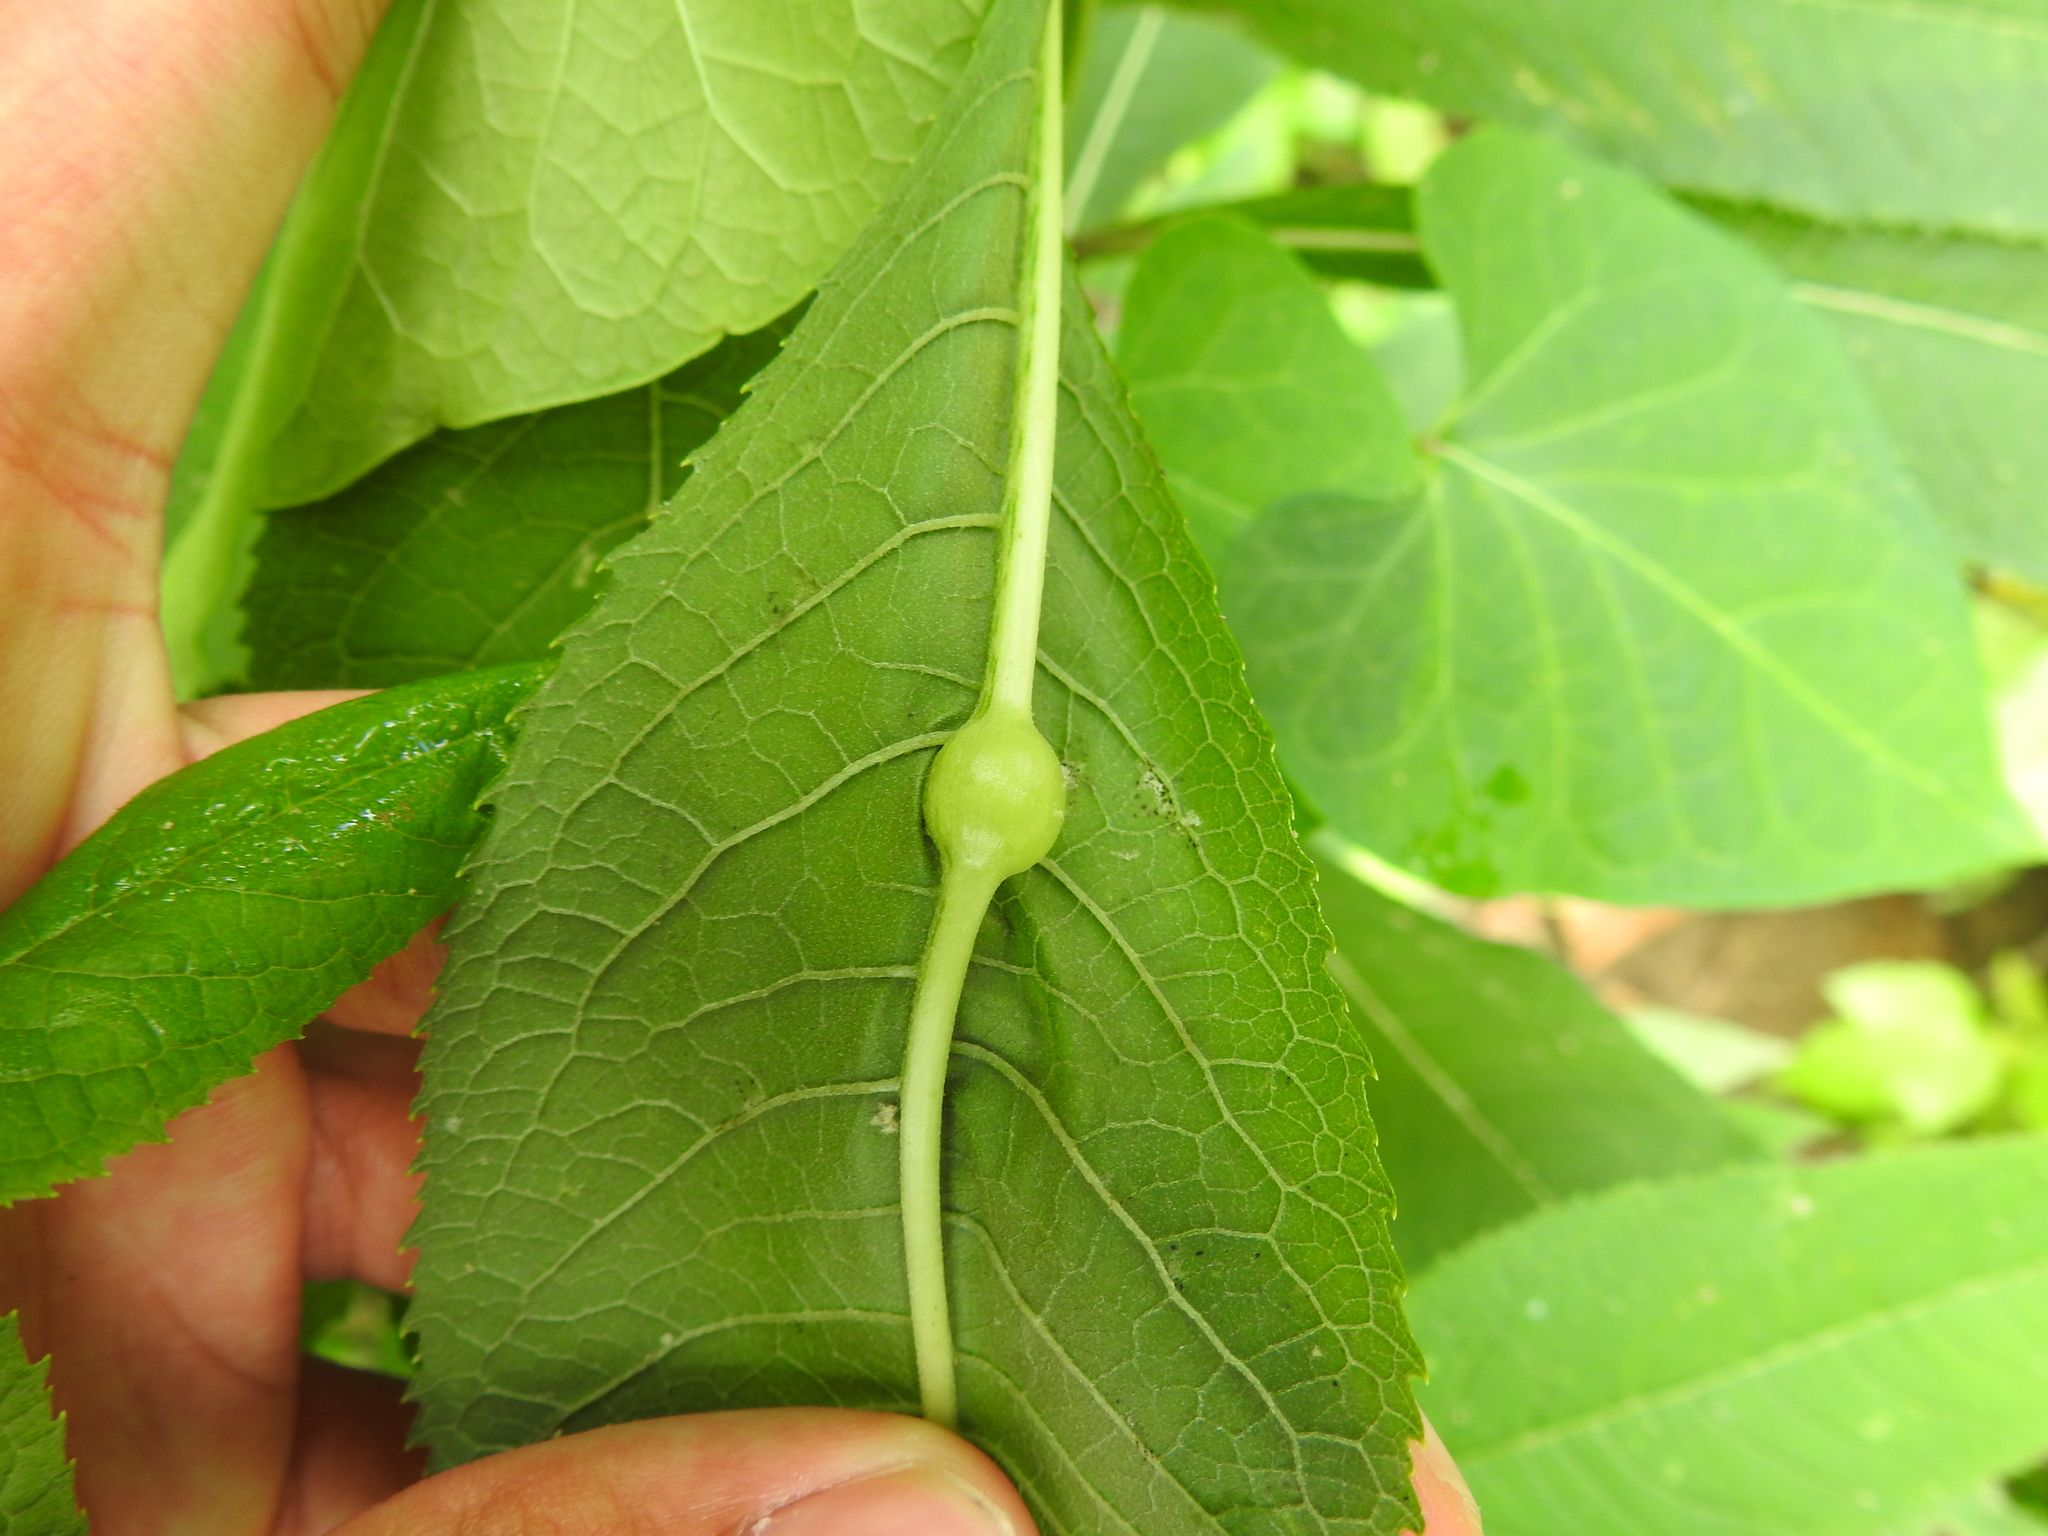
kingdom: Animalia
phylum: Arthropoda
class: Insecta
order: Diptera
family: Cecidomyiidae
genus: Neolasioptera
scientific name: Neolasioptera vernoniae
